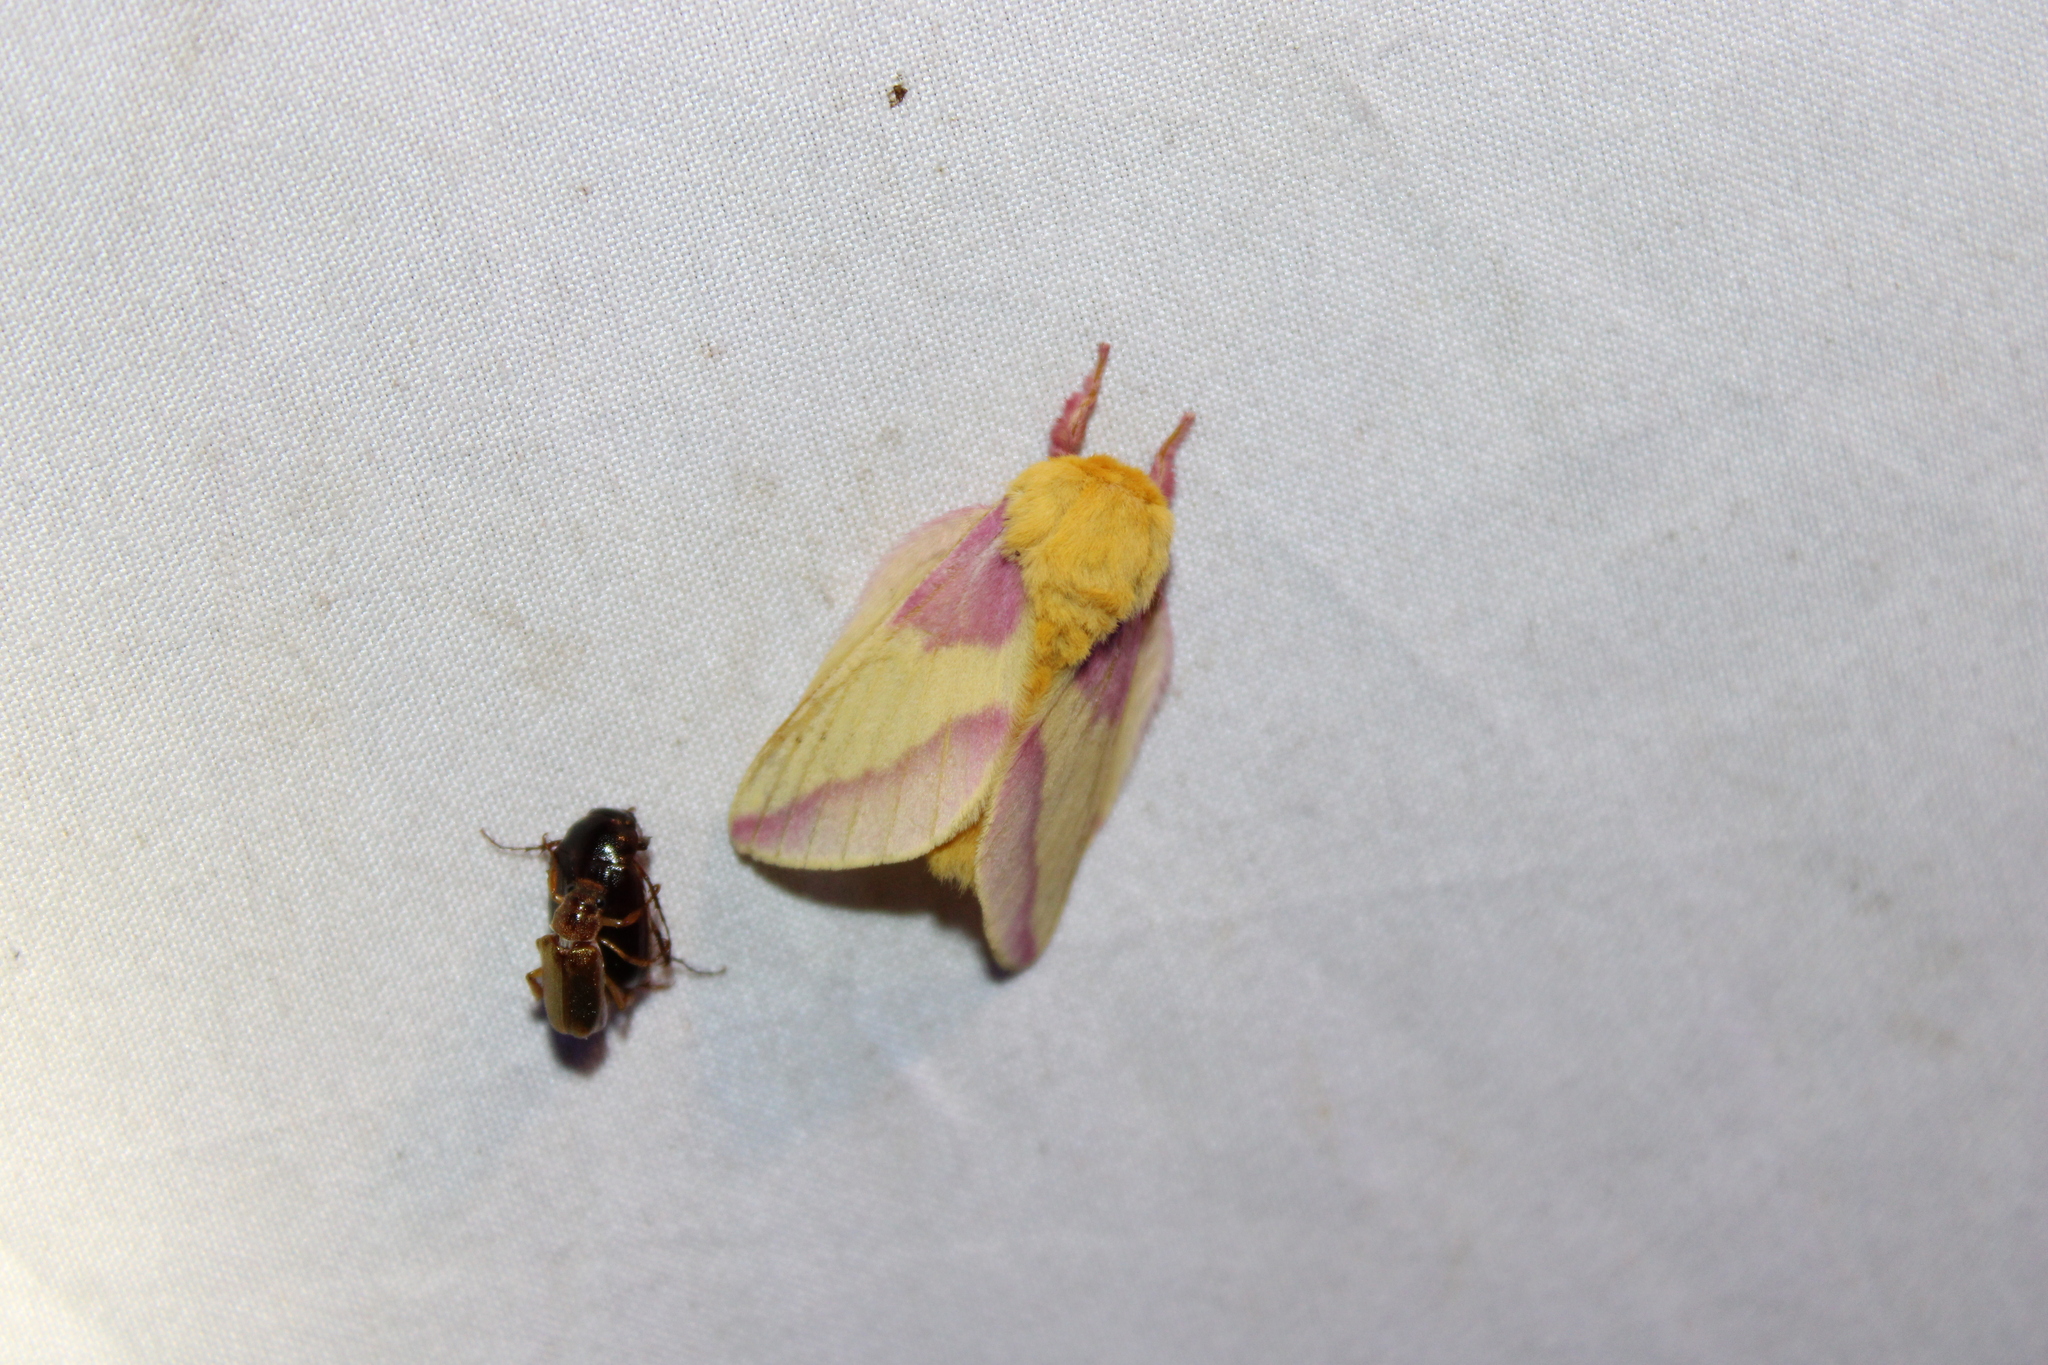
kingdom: Animalia
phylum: Arthropoda
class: Insecta
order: Lepidoptera
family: Saturniidae
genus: Dryocampa
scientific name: Dryocampa rubicunda
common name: Rosy maple moth
